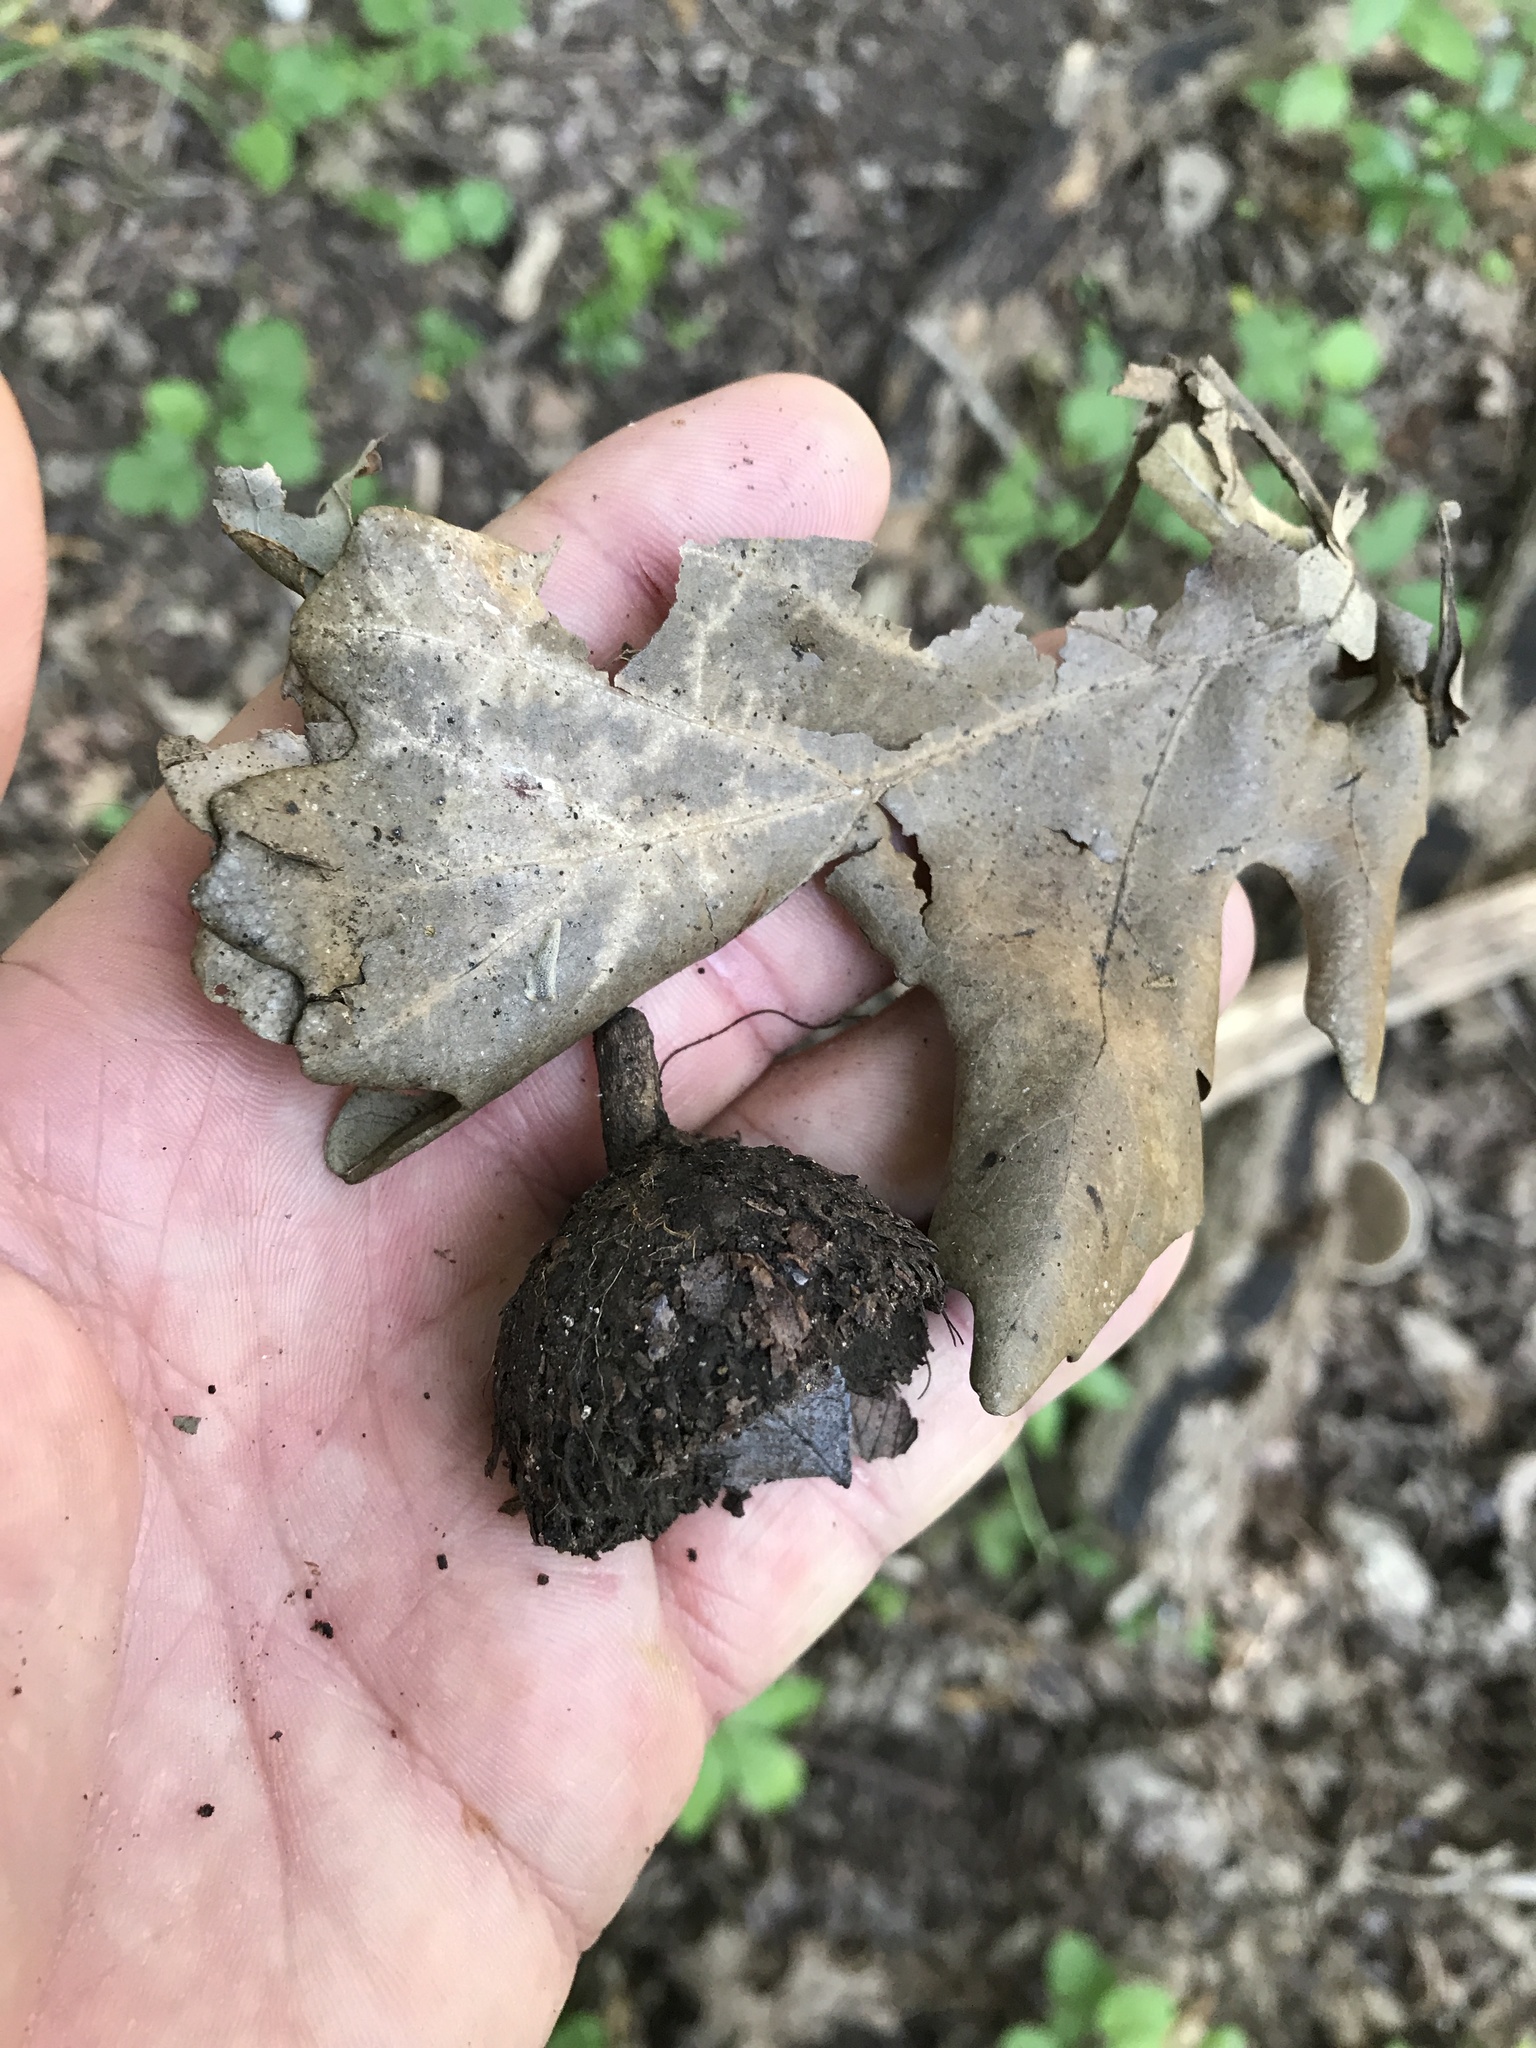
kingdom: Plantae
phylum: Tracheophyta
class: Magnoliopsida
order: Fagales
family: Fagaceae
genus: Quercus
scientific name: Quercus macrocarpa
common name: Bur oak
